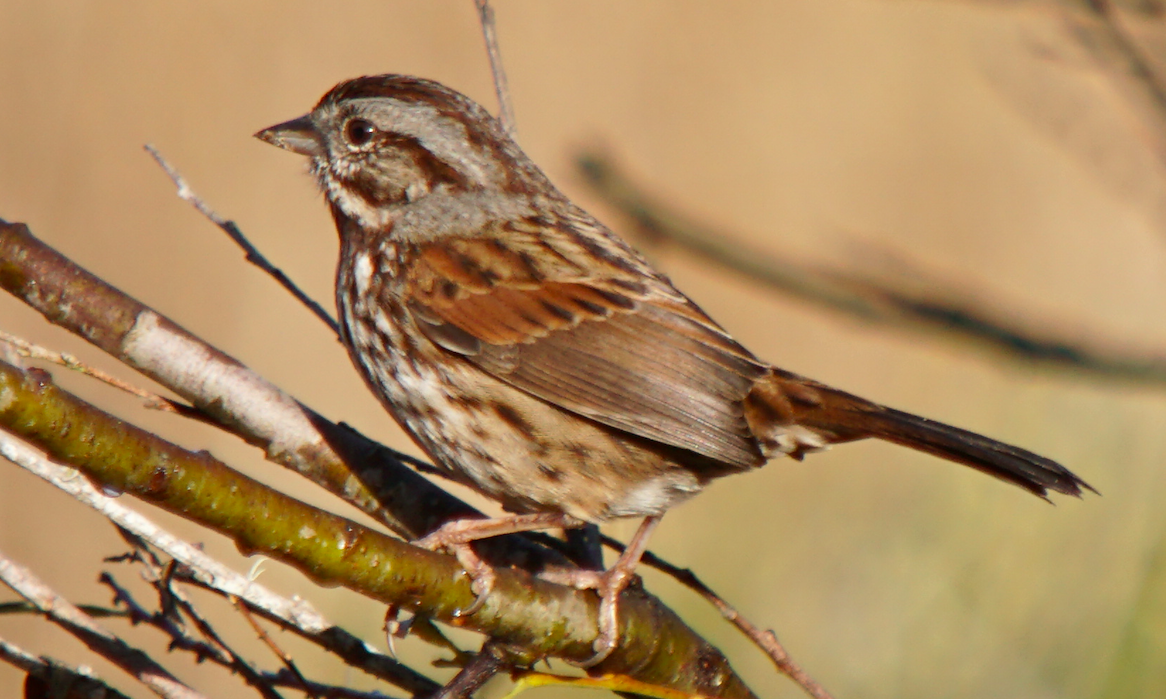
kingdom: Animalia
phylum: Chordata
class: Aves
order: Passeriformes
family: Passerellidae
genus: Melospiza
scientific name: Melospiza melodia
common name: Song sparrow
